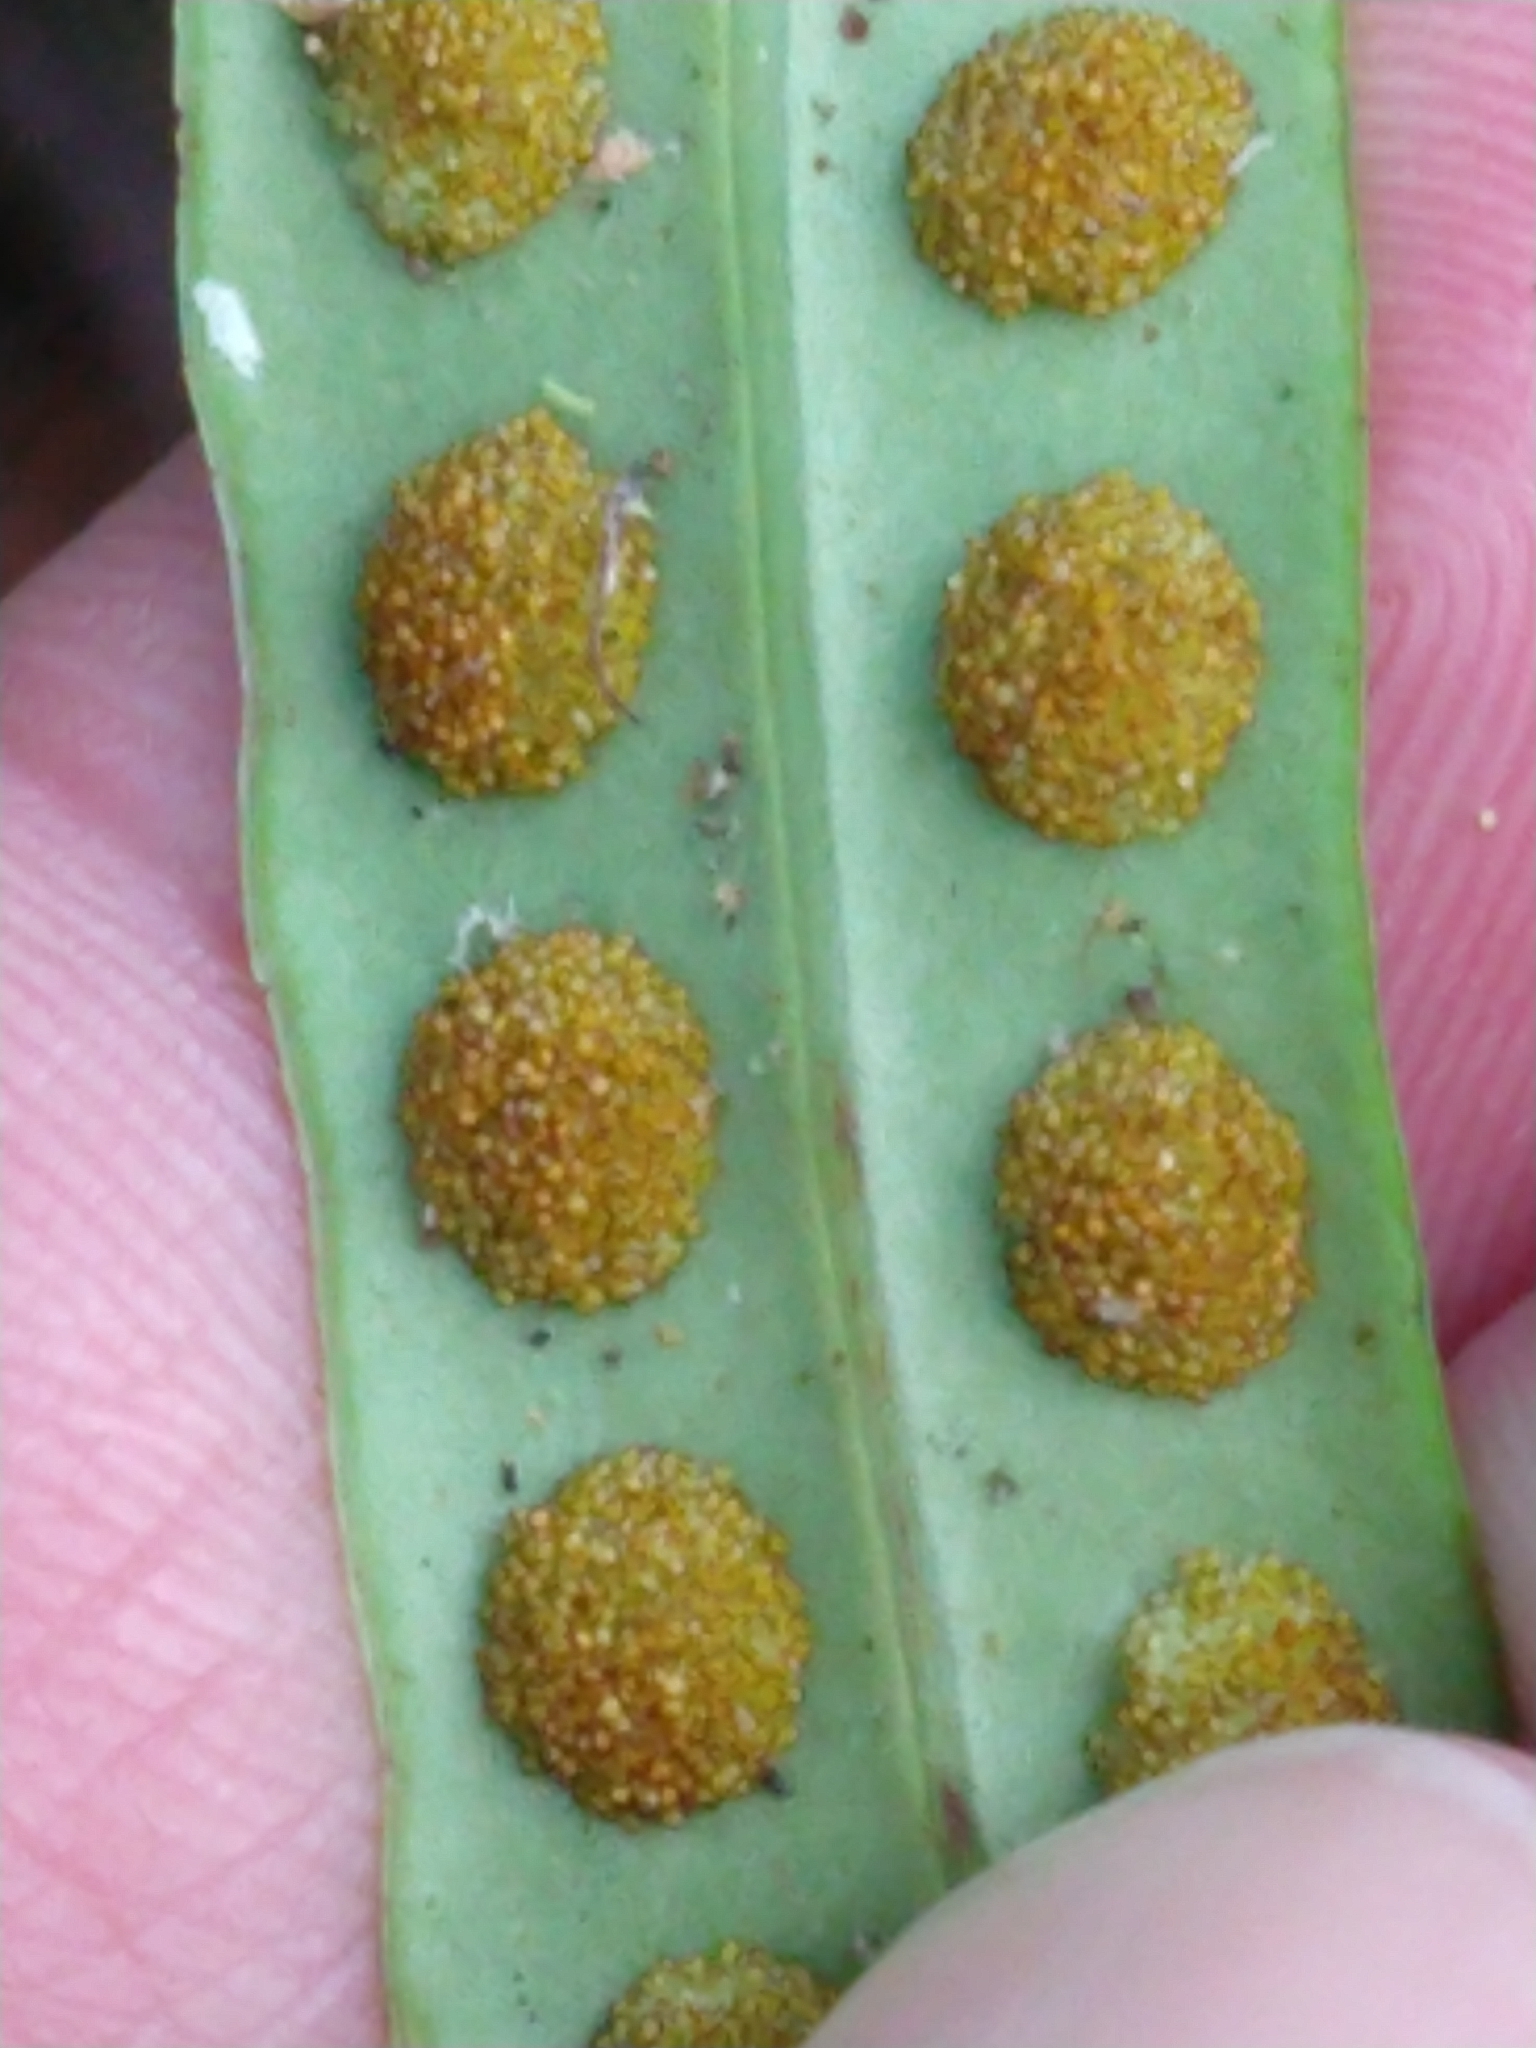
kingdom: Plantae
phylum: Tracheophyta
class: Polypodiopsida
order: Polypodiales
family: Polypodiaceae
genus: Lepisorus
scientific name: Lepisorus thunbergianus
